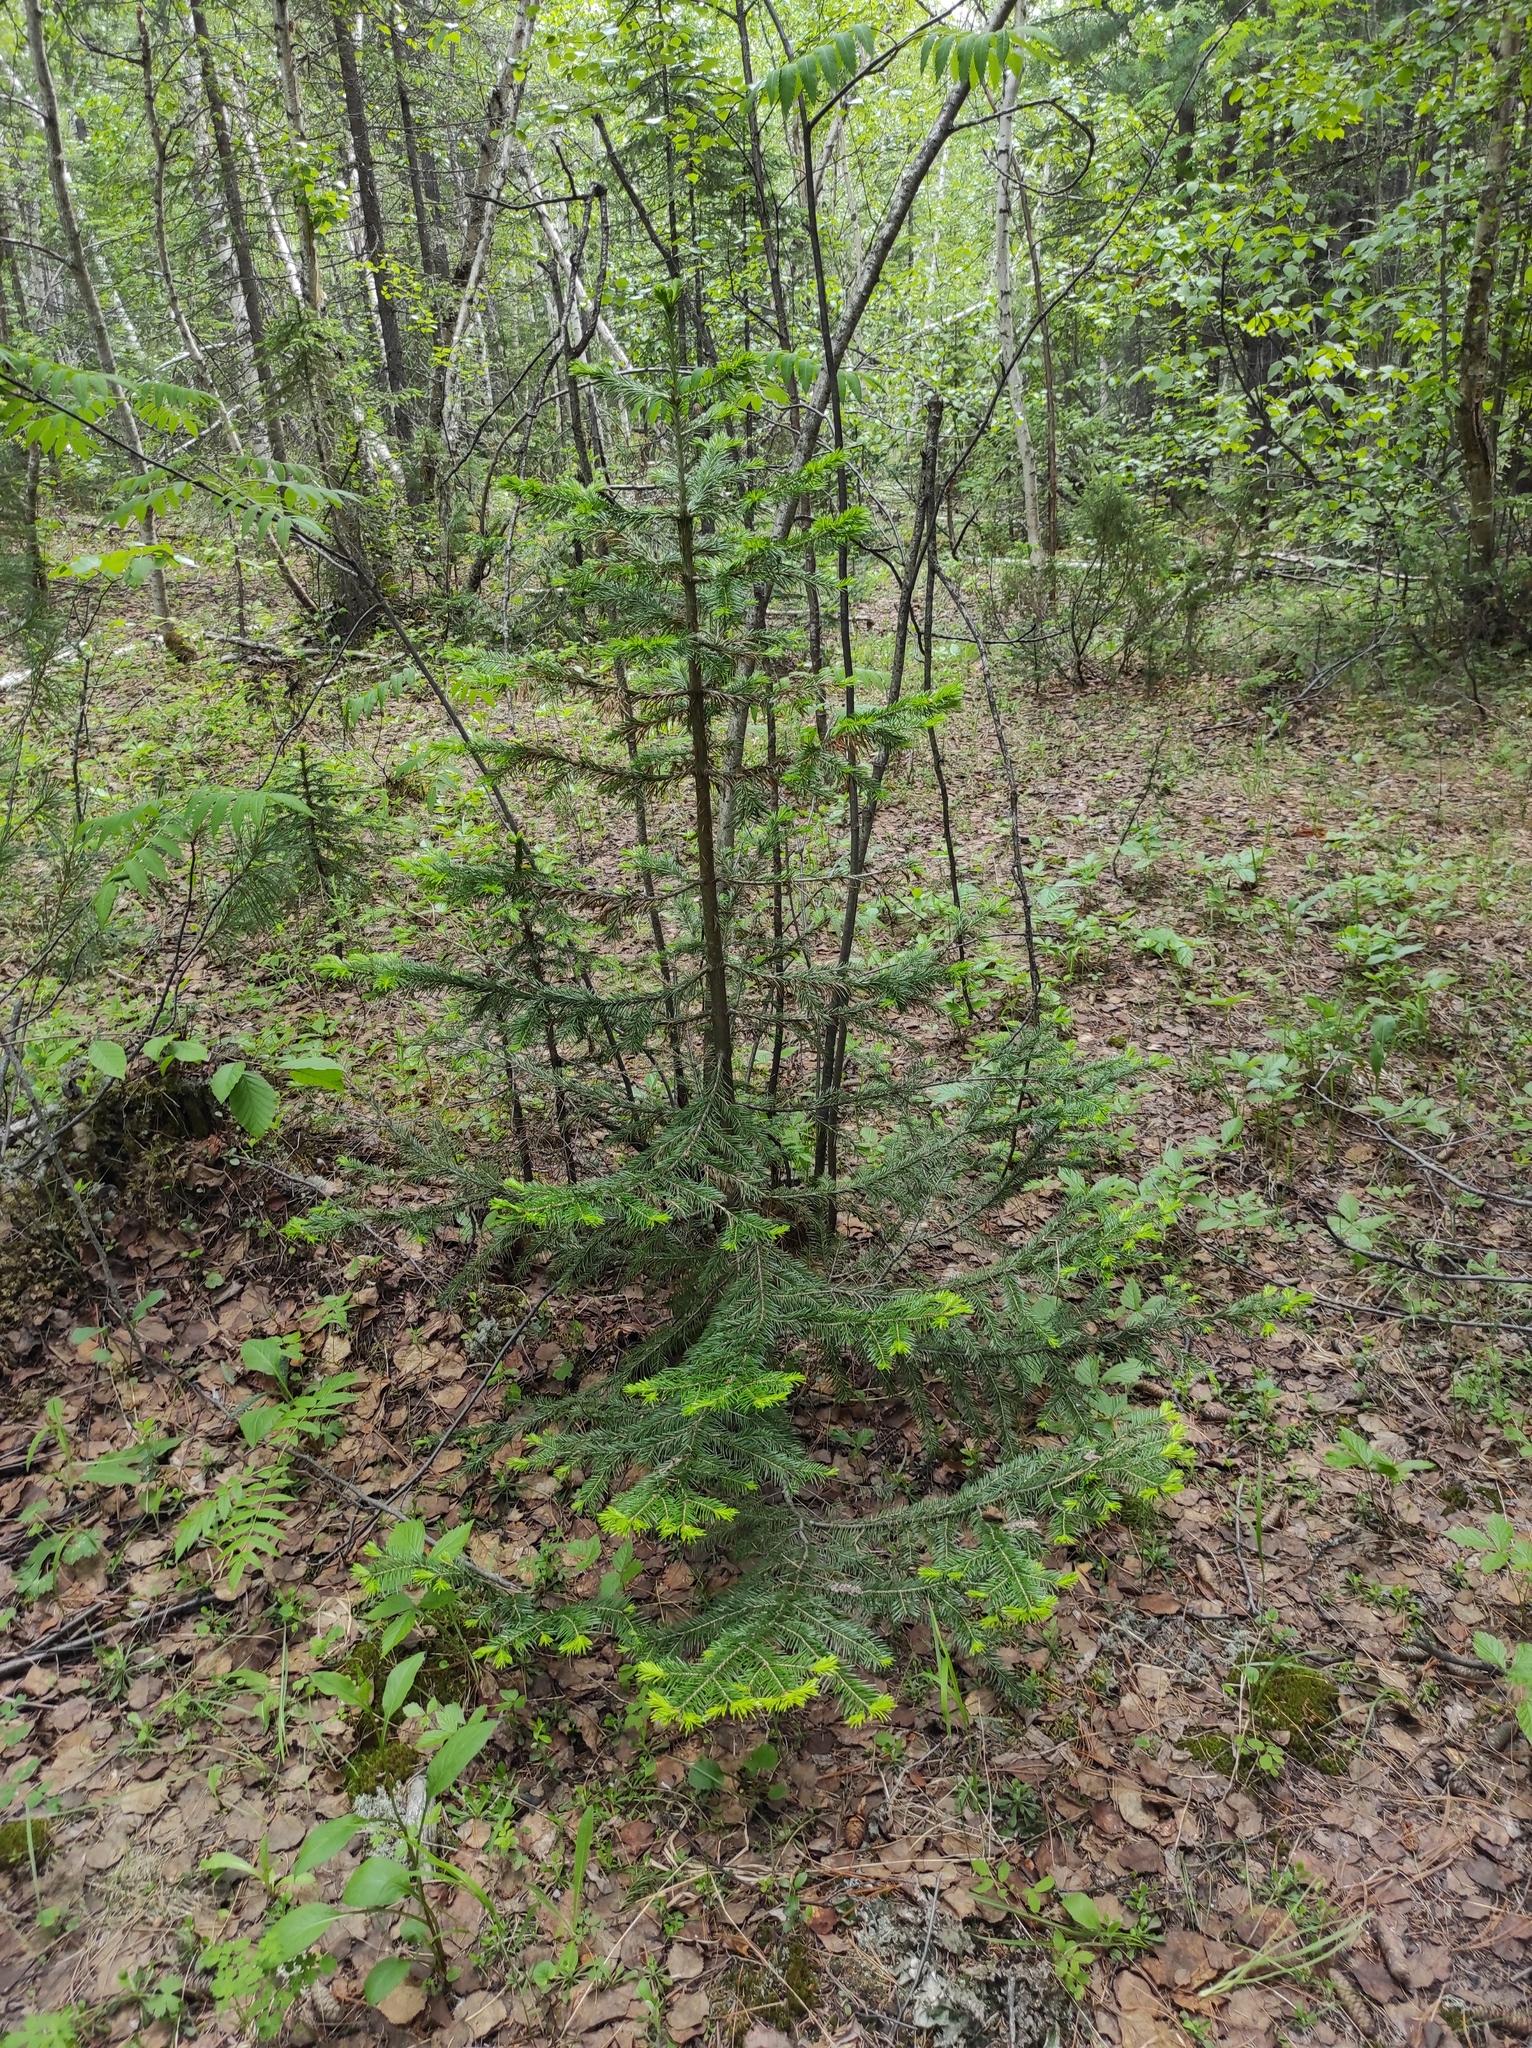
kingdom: Plantae
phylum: Tracheophyta
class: Pinopsida
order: Pinales
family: Pinaceae
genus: Abies
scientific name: Abies sibirica
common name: Siberian fir
